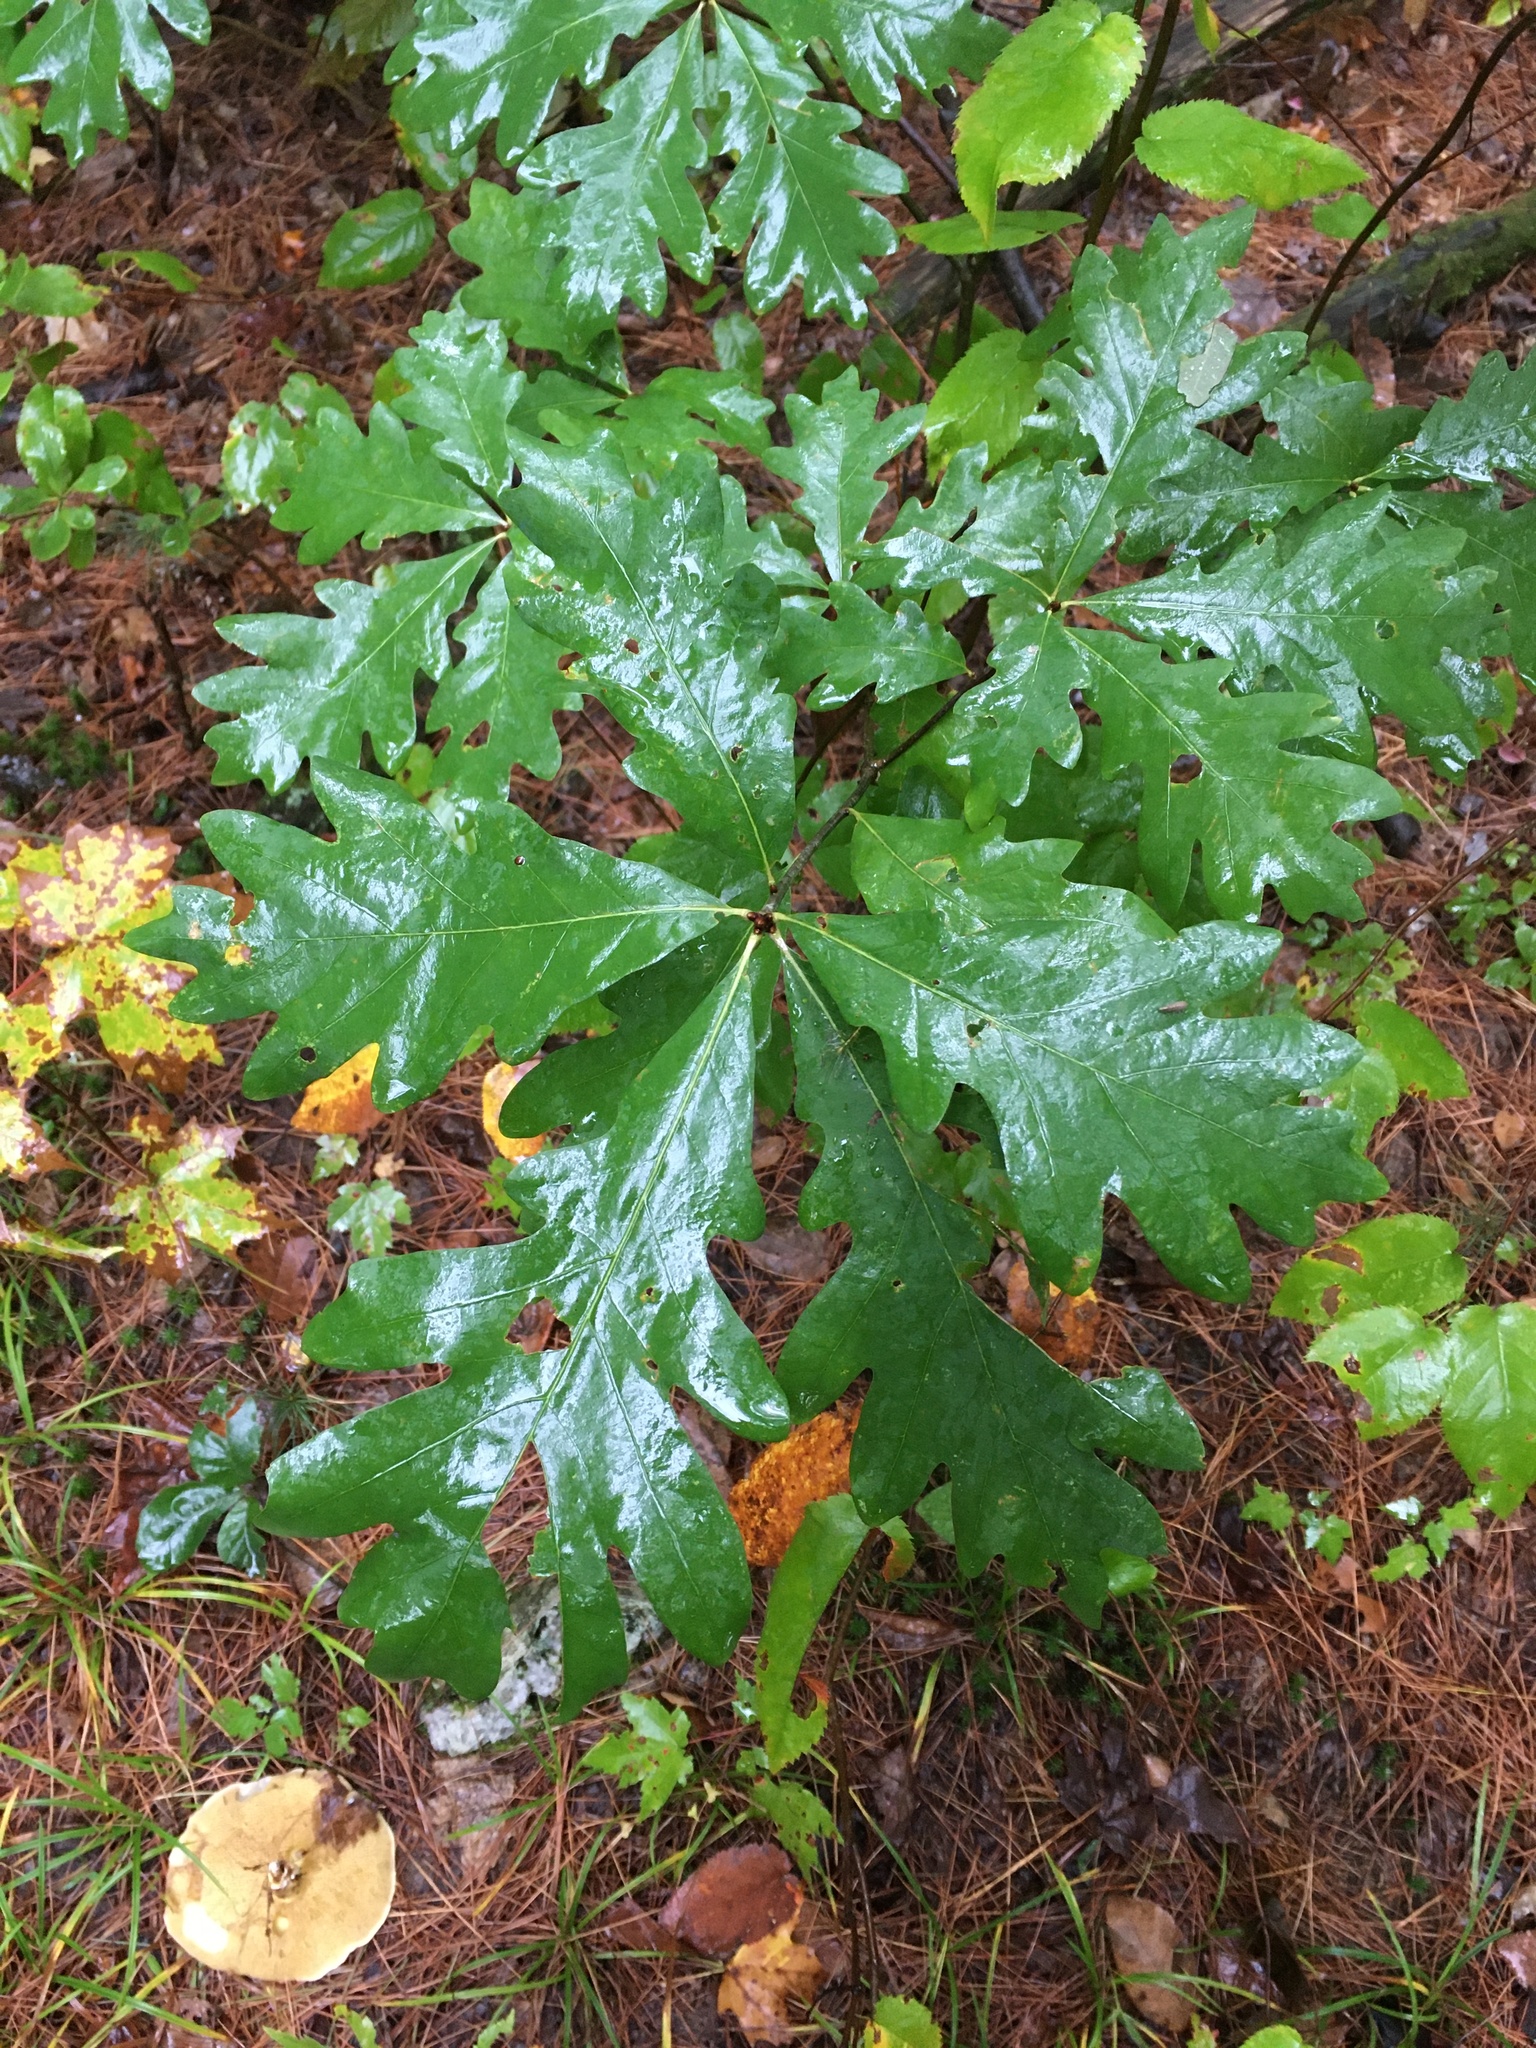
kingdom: Plantae
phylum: Tracheophyta
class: Magnoliopsida
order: Fagales
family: Fagaceae
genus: Quercus
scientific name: Quercus alba
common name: White oak
